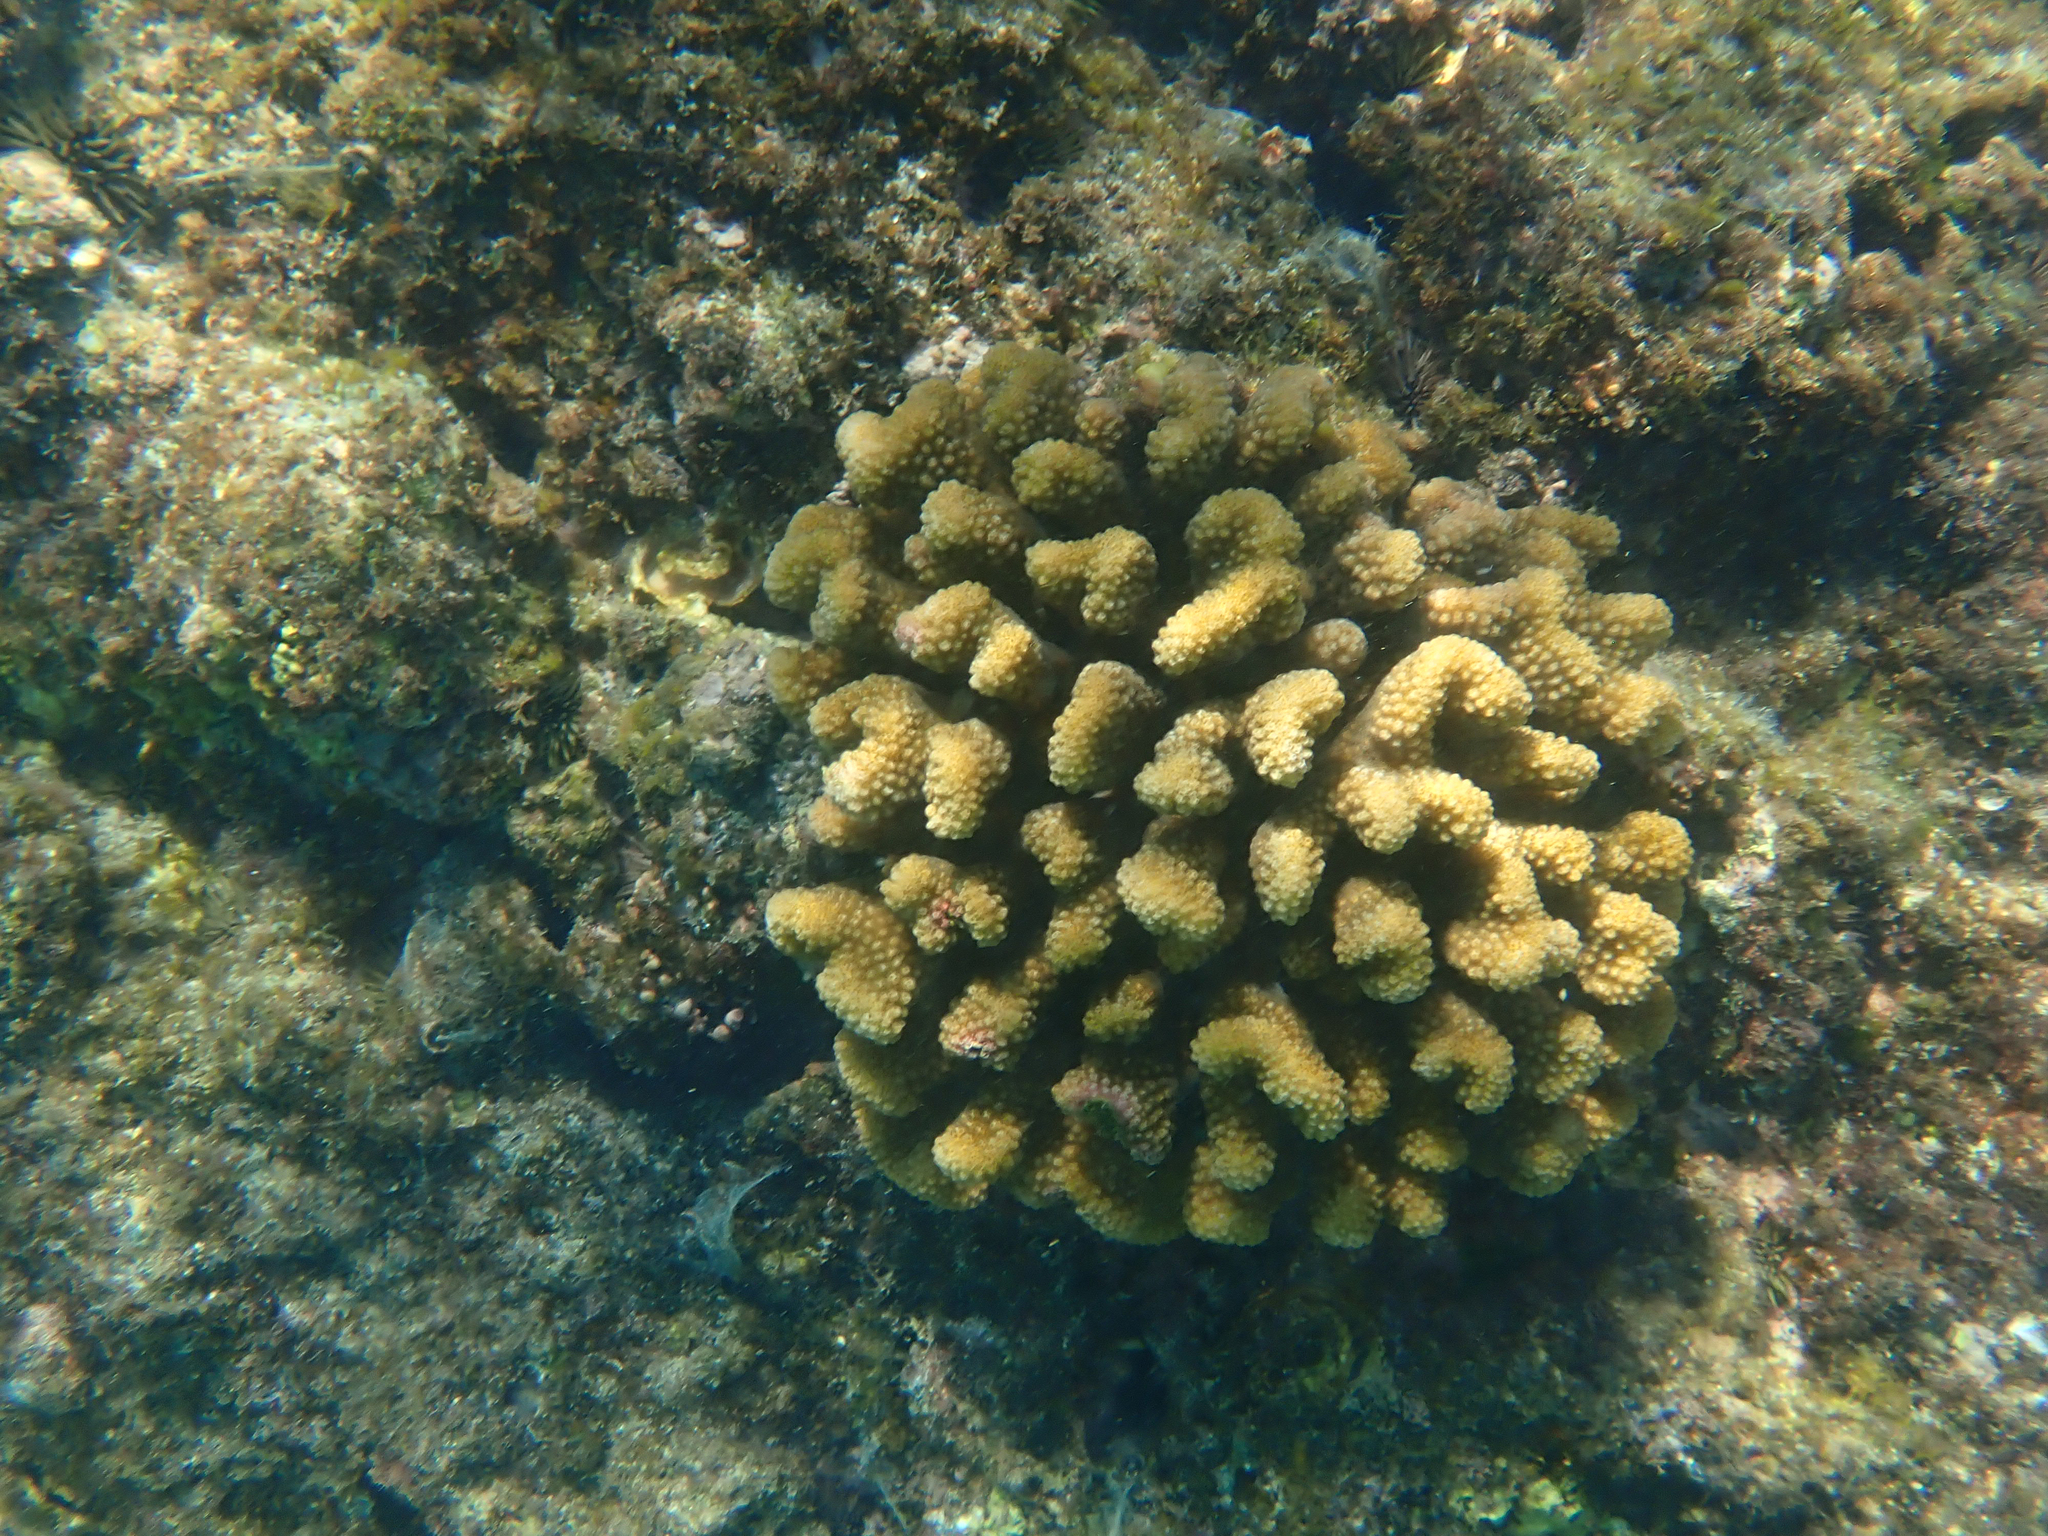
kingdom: Animalia
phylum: Cnidaria
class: Anthozoa
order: Scleractinia
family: Pocilloporidae
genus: Pocillopora
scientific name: Pocillopora meandrina
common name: Cauliflower coral
